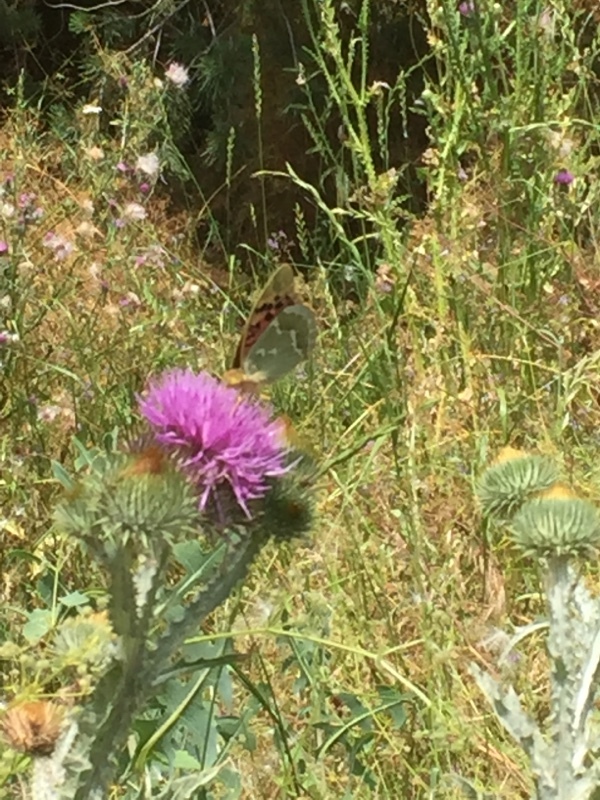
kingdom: Animalia
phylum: Arthropoda
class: Insecta
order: Lepidoptera
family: Nymphalidae
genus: Damora
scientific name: Damora pandora
